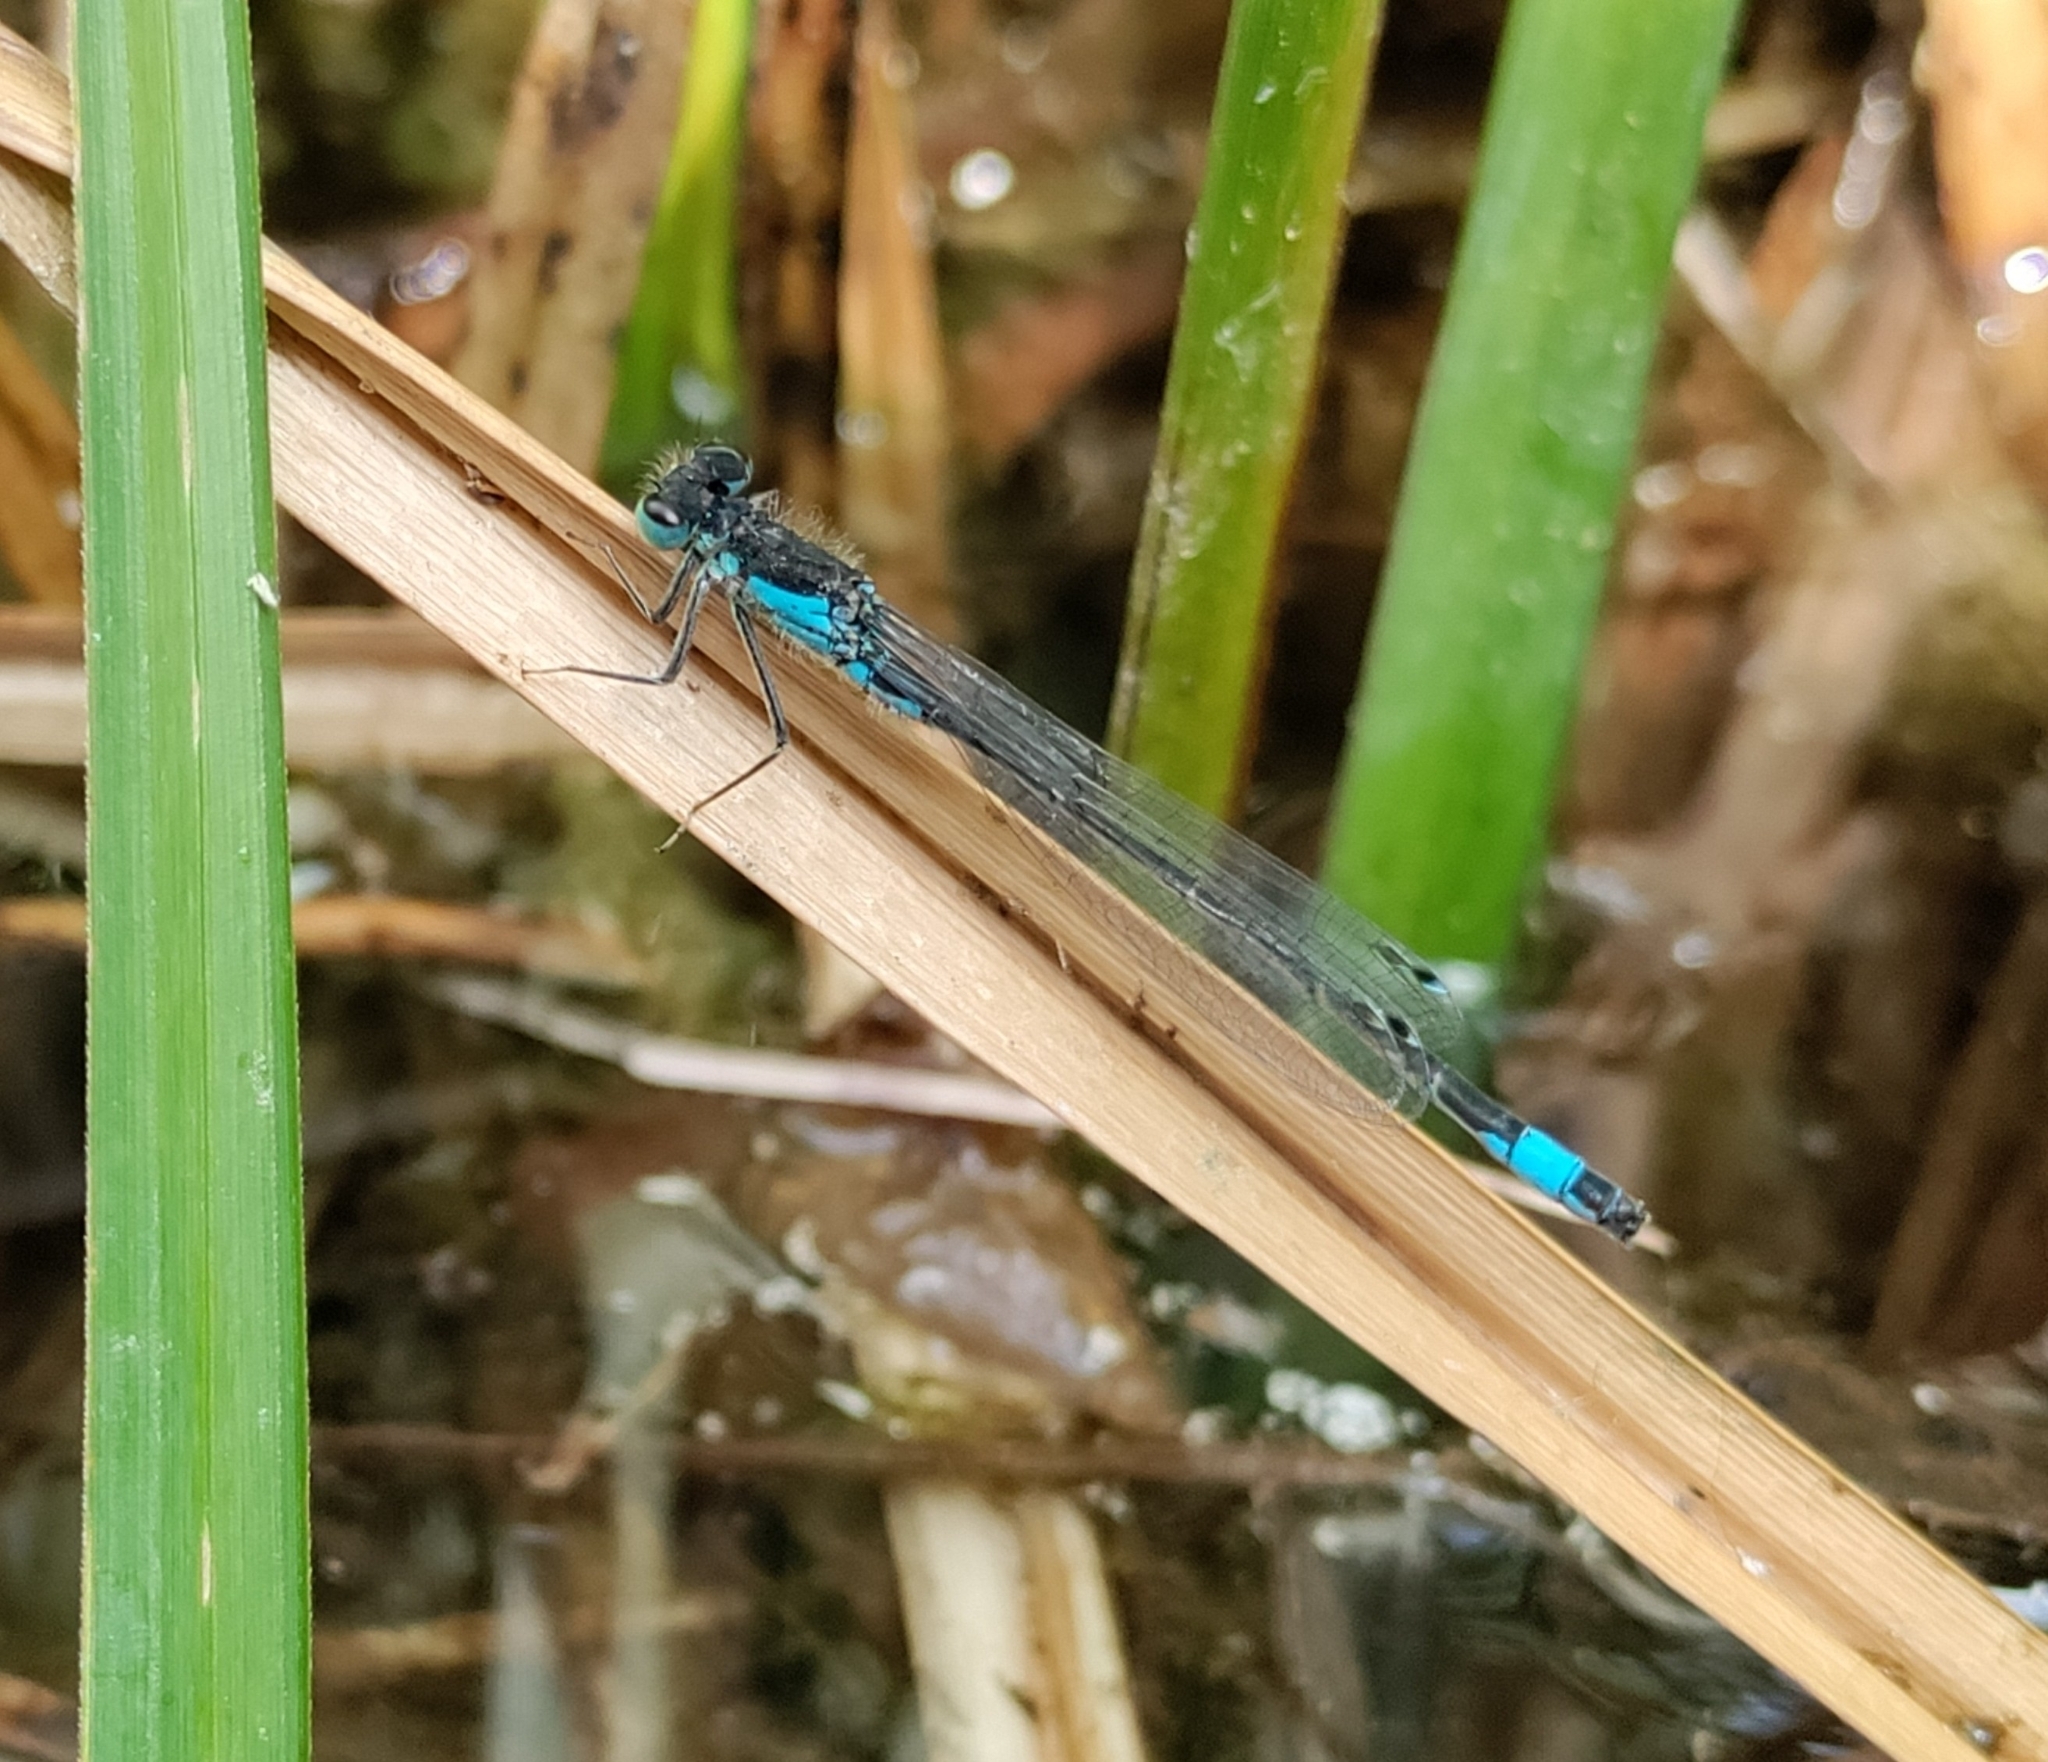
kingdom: Animalia
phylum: Arthropoda
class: Insecta
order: Odonata
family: Coenagrionidae
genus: Ischnura
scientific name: Ischnura elegans
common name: Blue-tailed damselfly
